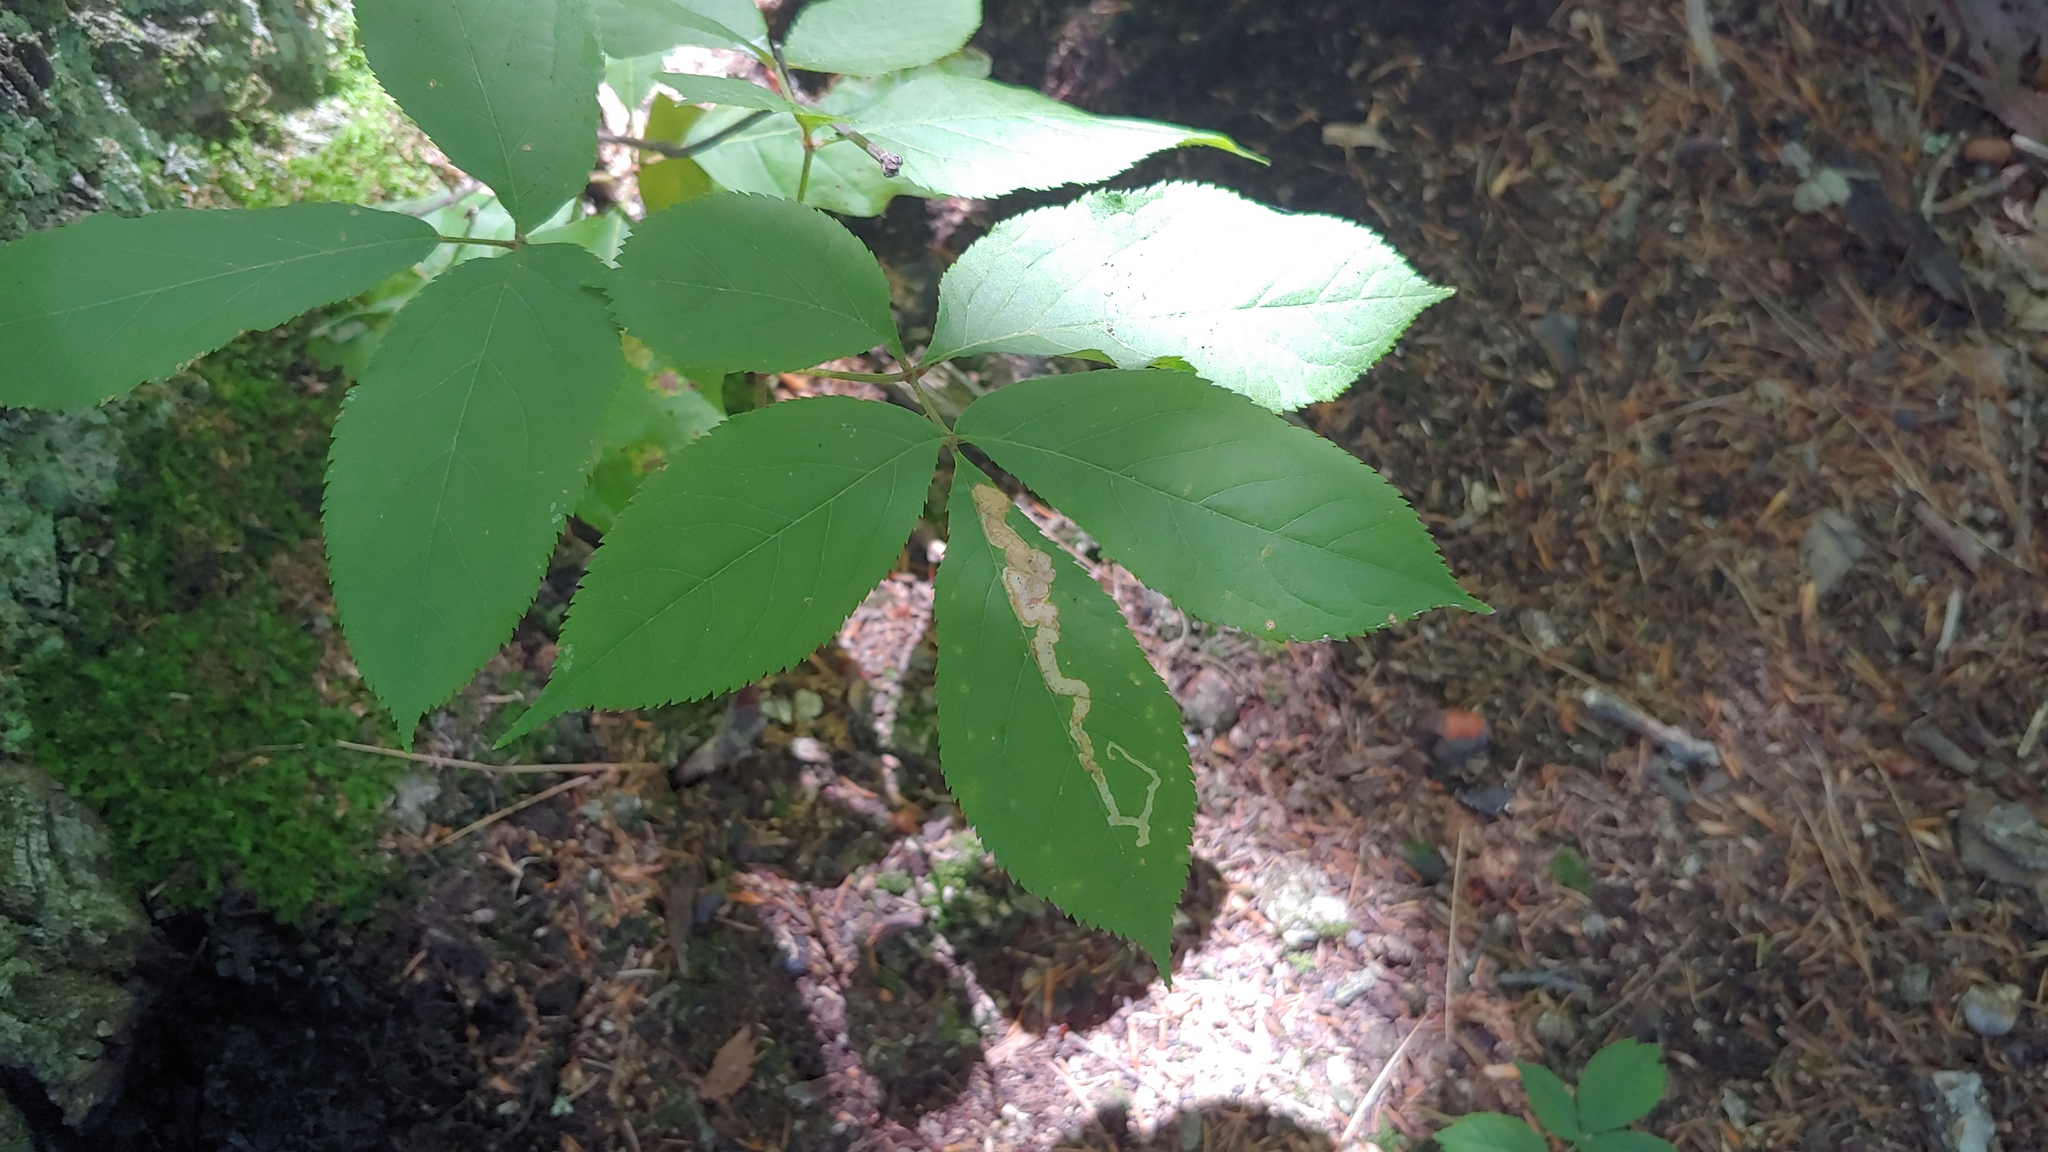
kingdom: Animalia
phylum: Arthropoda
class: Insecta
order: Diptera
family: Agromyzidae
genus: Phytomyza
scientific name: Phytomyza aralivora
